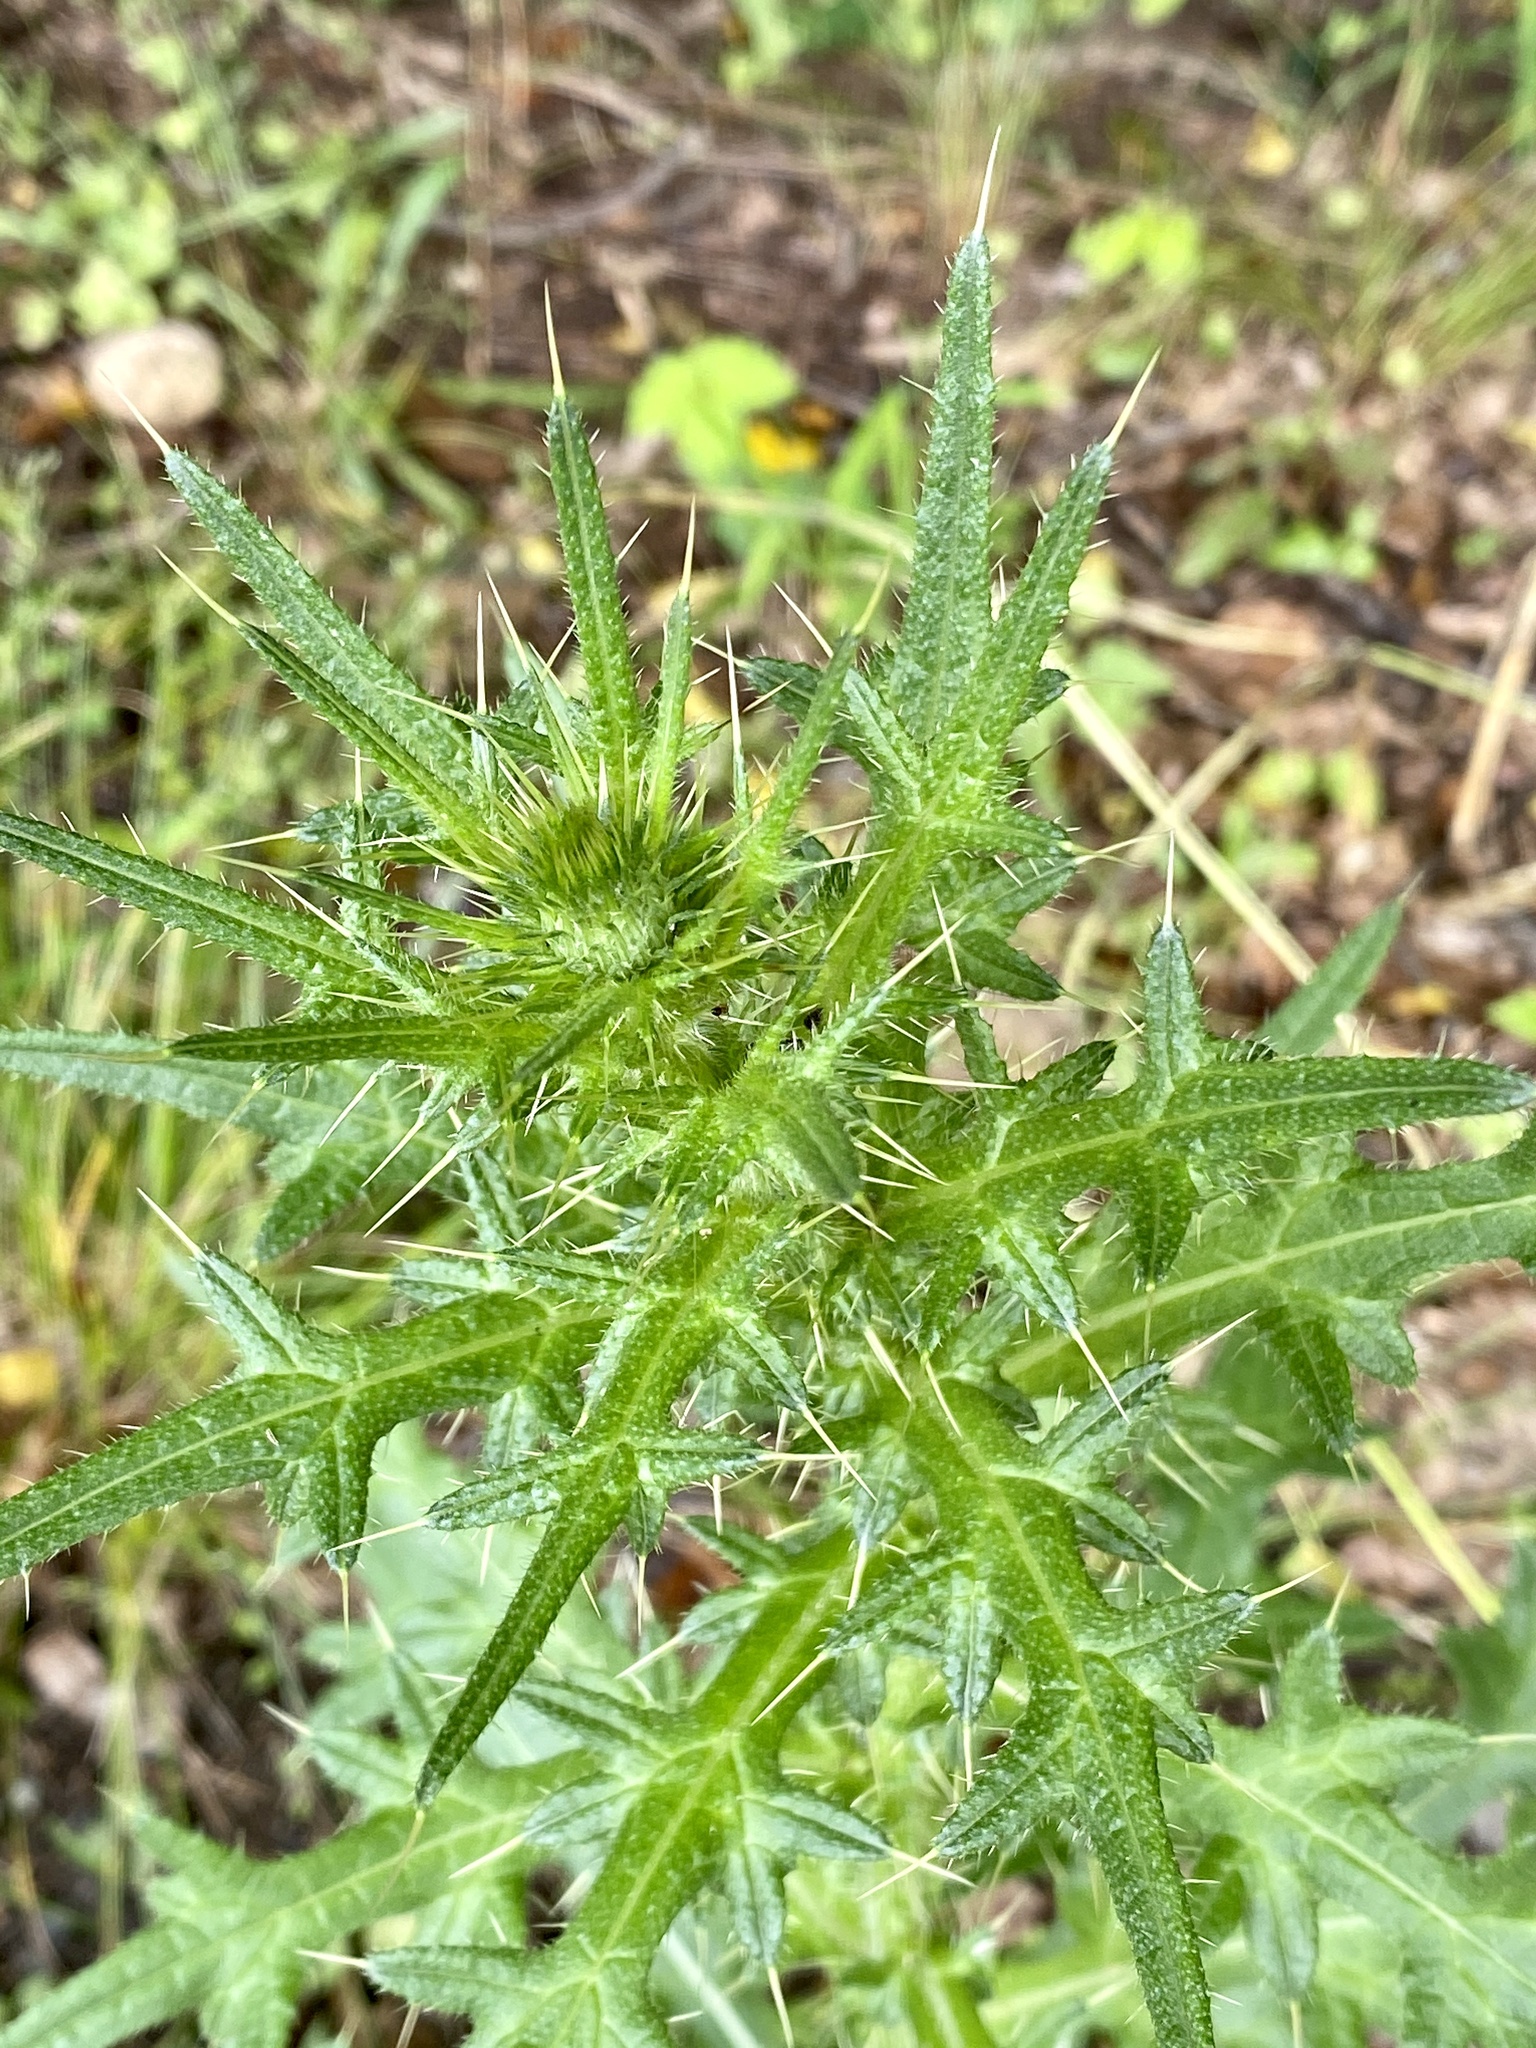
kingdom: Plantae
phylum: Tracheophyta
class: Magnoliopsida
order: Asterales
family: Asteraceae
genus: Cirsium
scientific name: Cirsium vulgare
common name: Bull thistle
